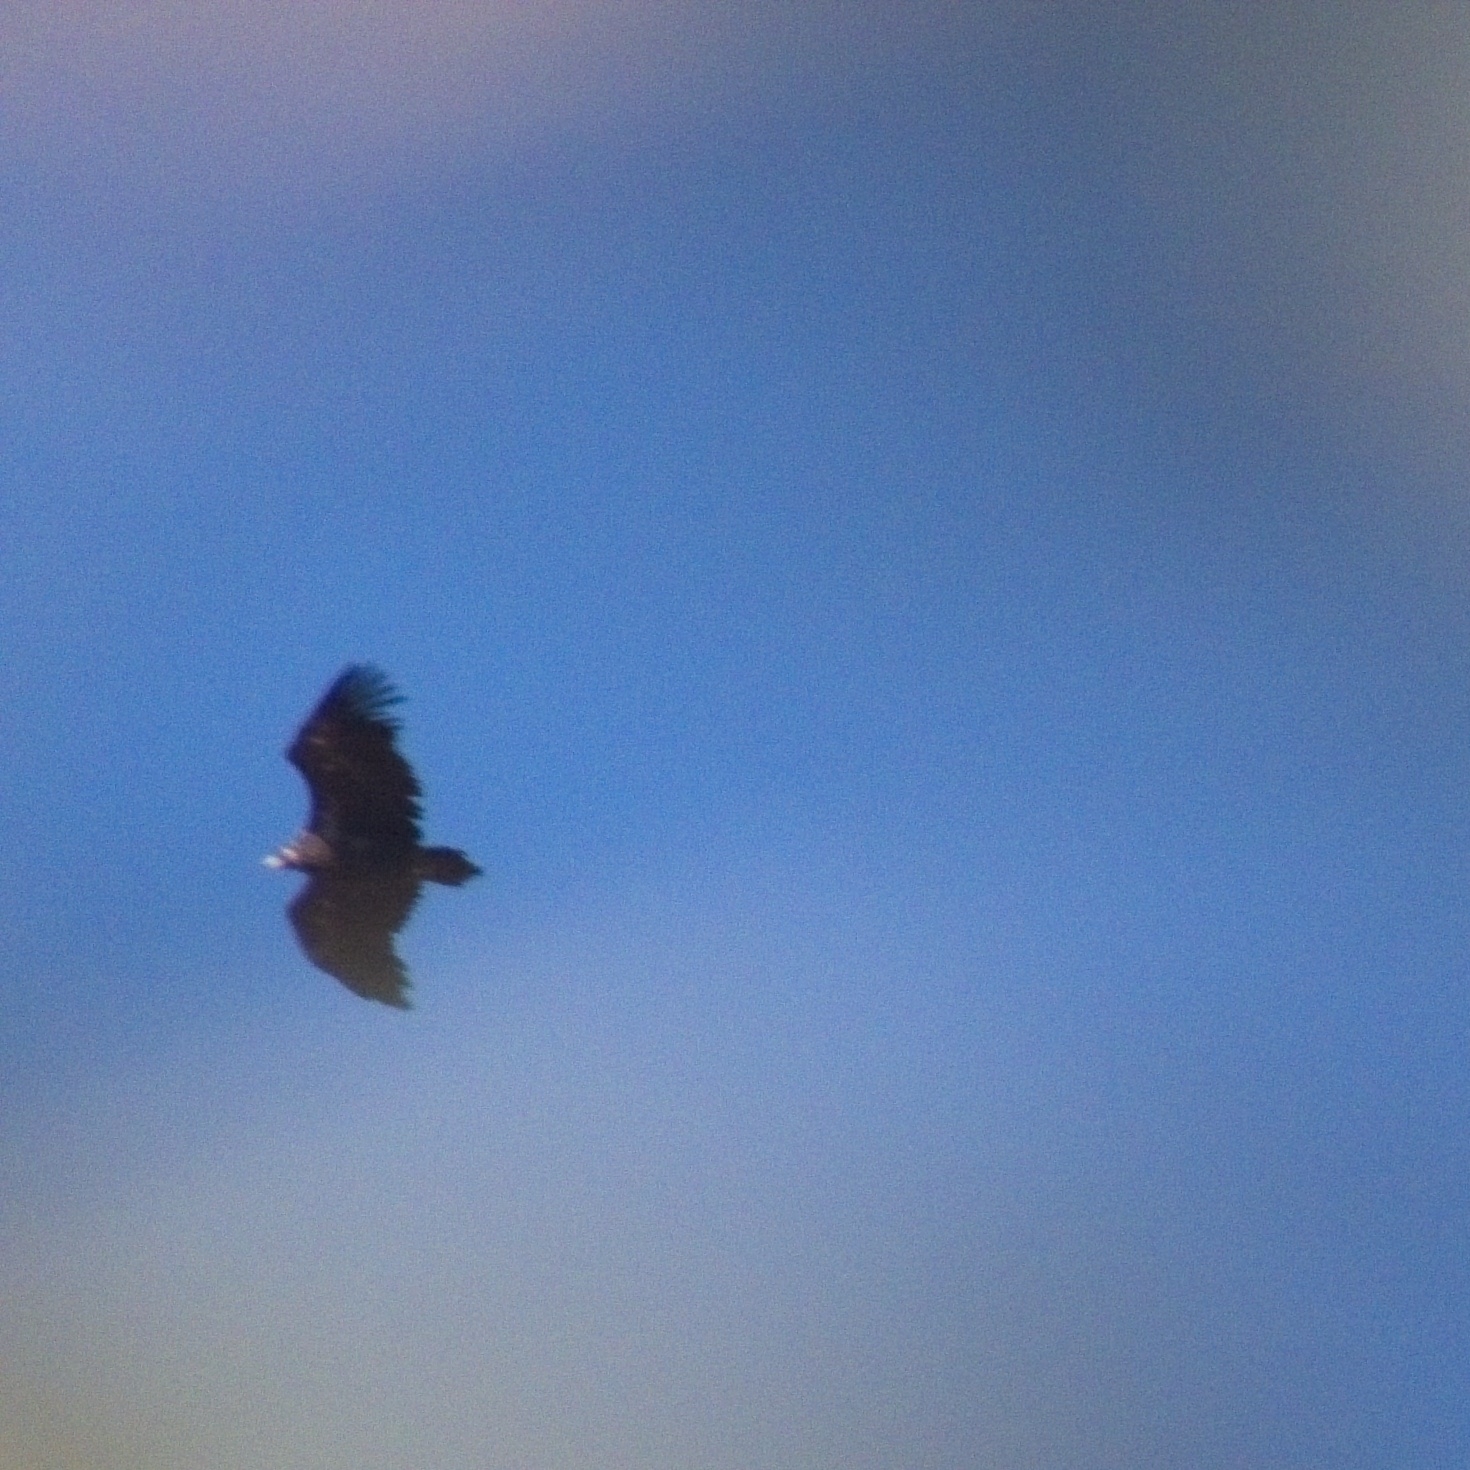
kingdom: Animalia
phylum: Chordata
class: Aves
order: Accipitriformes
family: Accipitridae
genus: Aegypius
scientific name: Aegypius monachus
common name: Cinereous vulture
